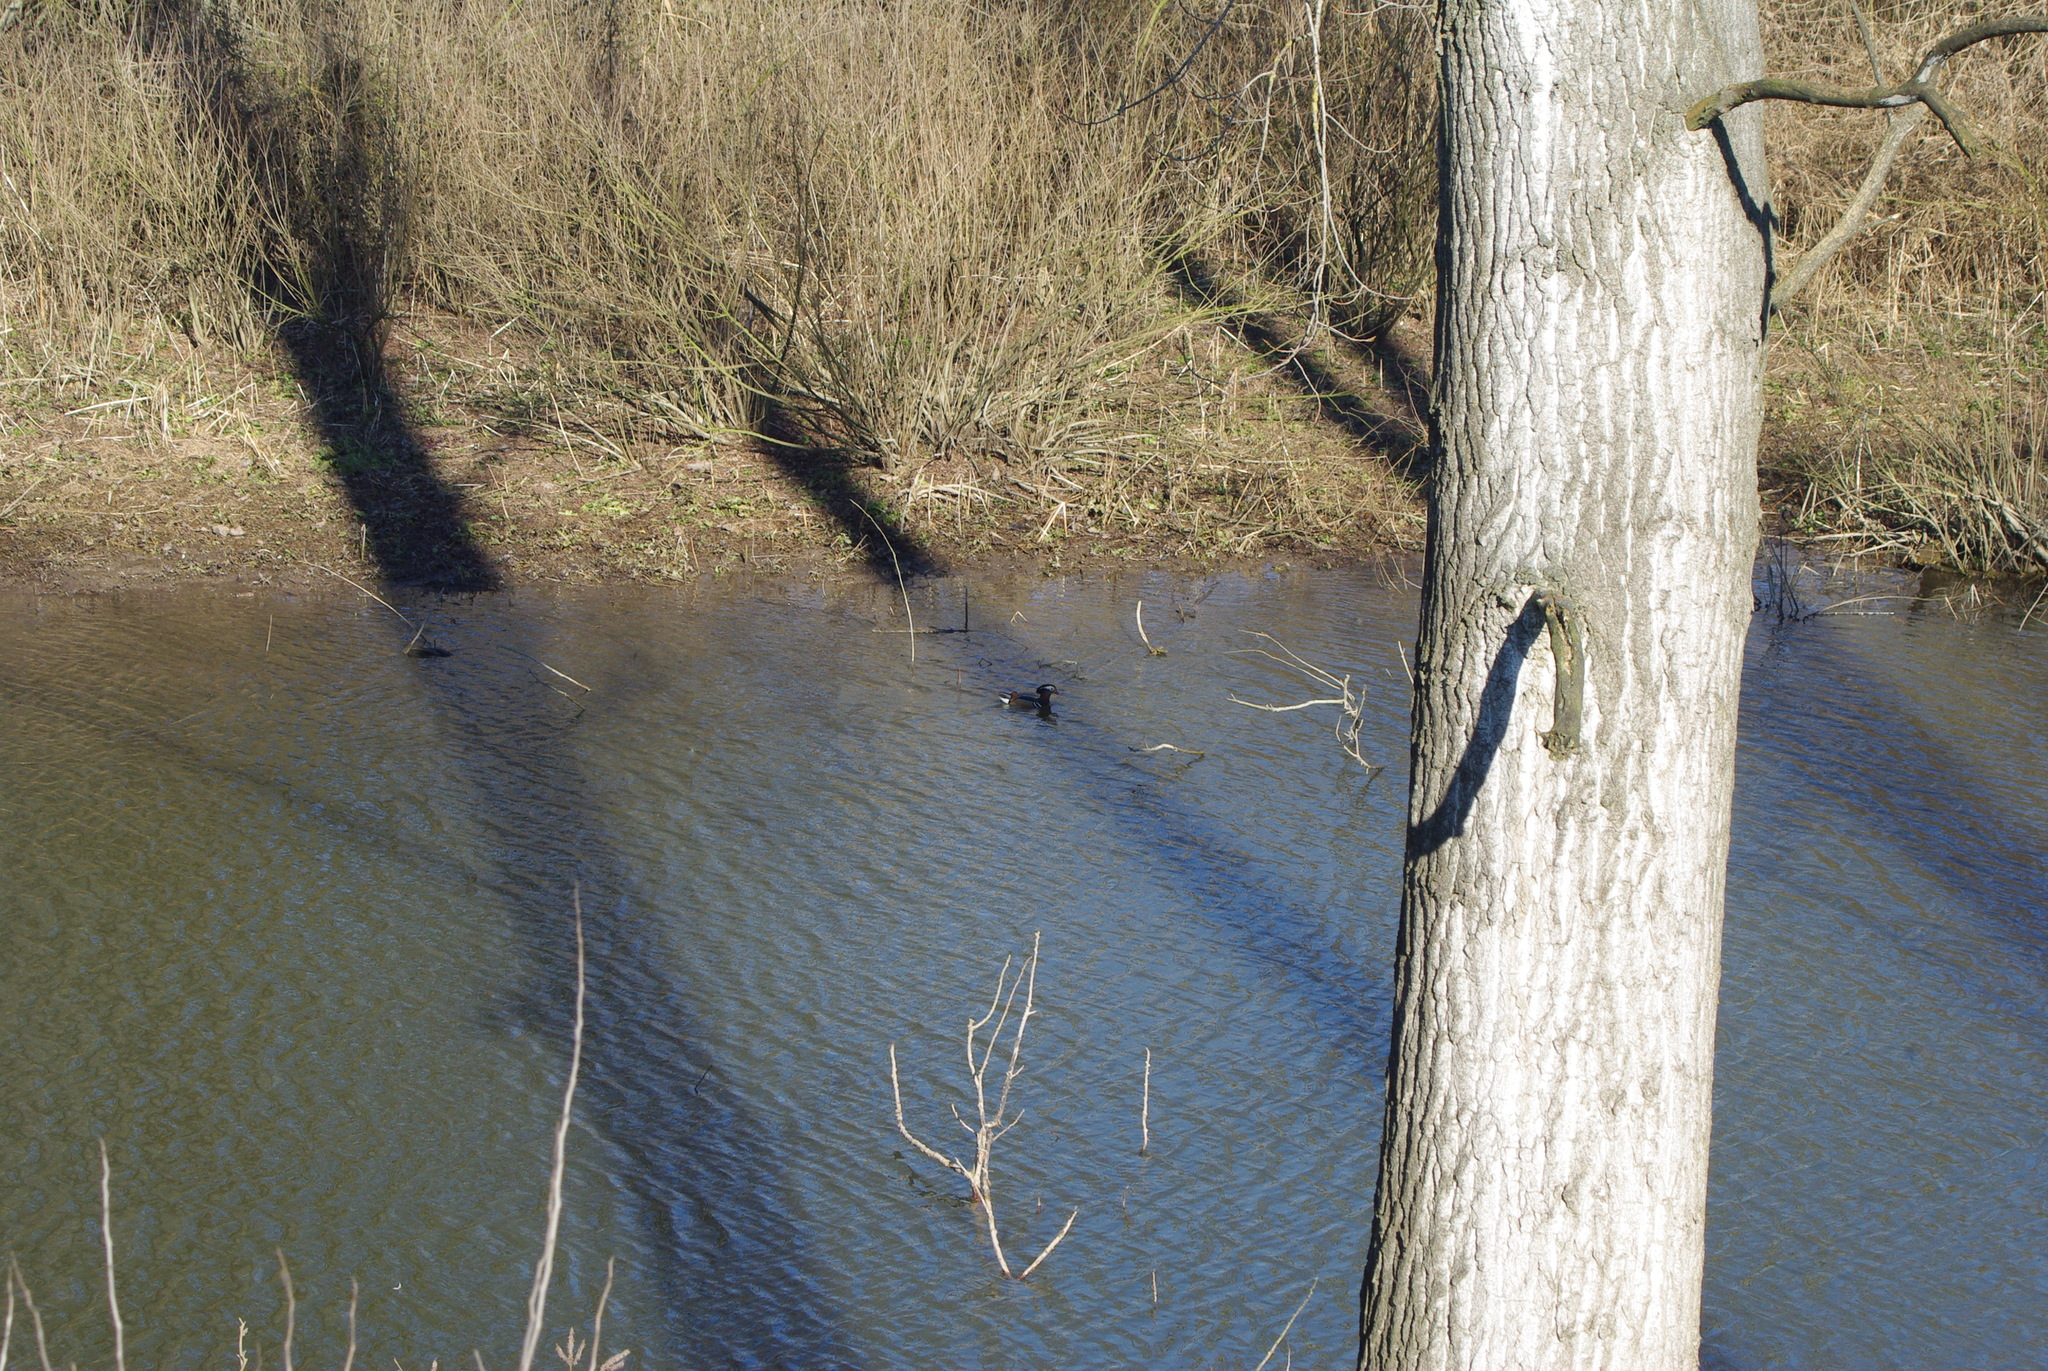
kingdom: Animalia
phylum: Chordata
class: Aves
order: Anseriformes
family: Anatidae
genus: Aix
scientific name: Aix galericulata
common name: Mandarin duck
